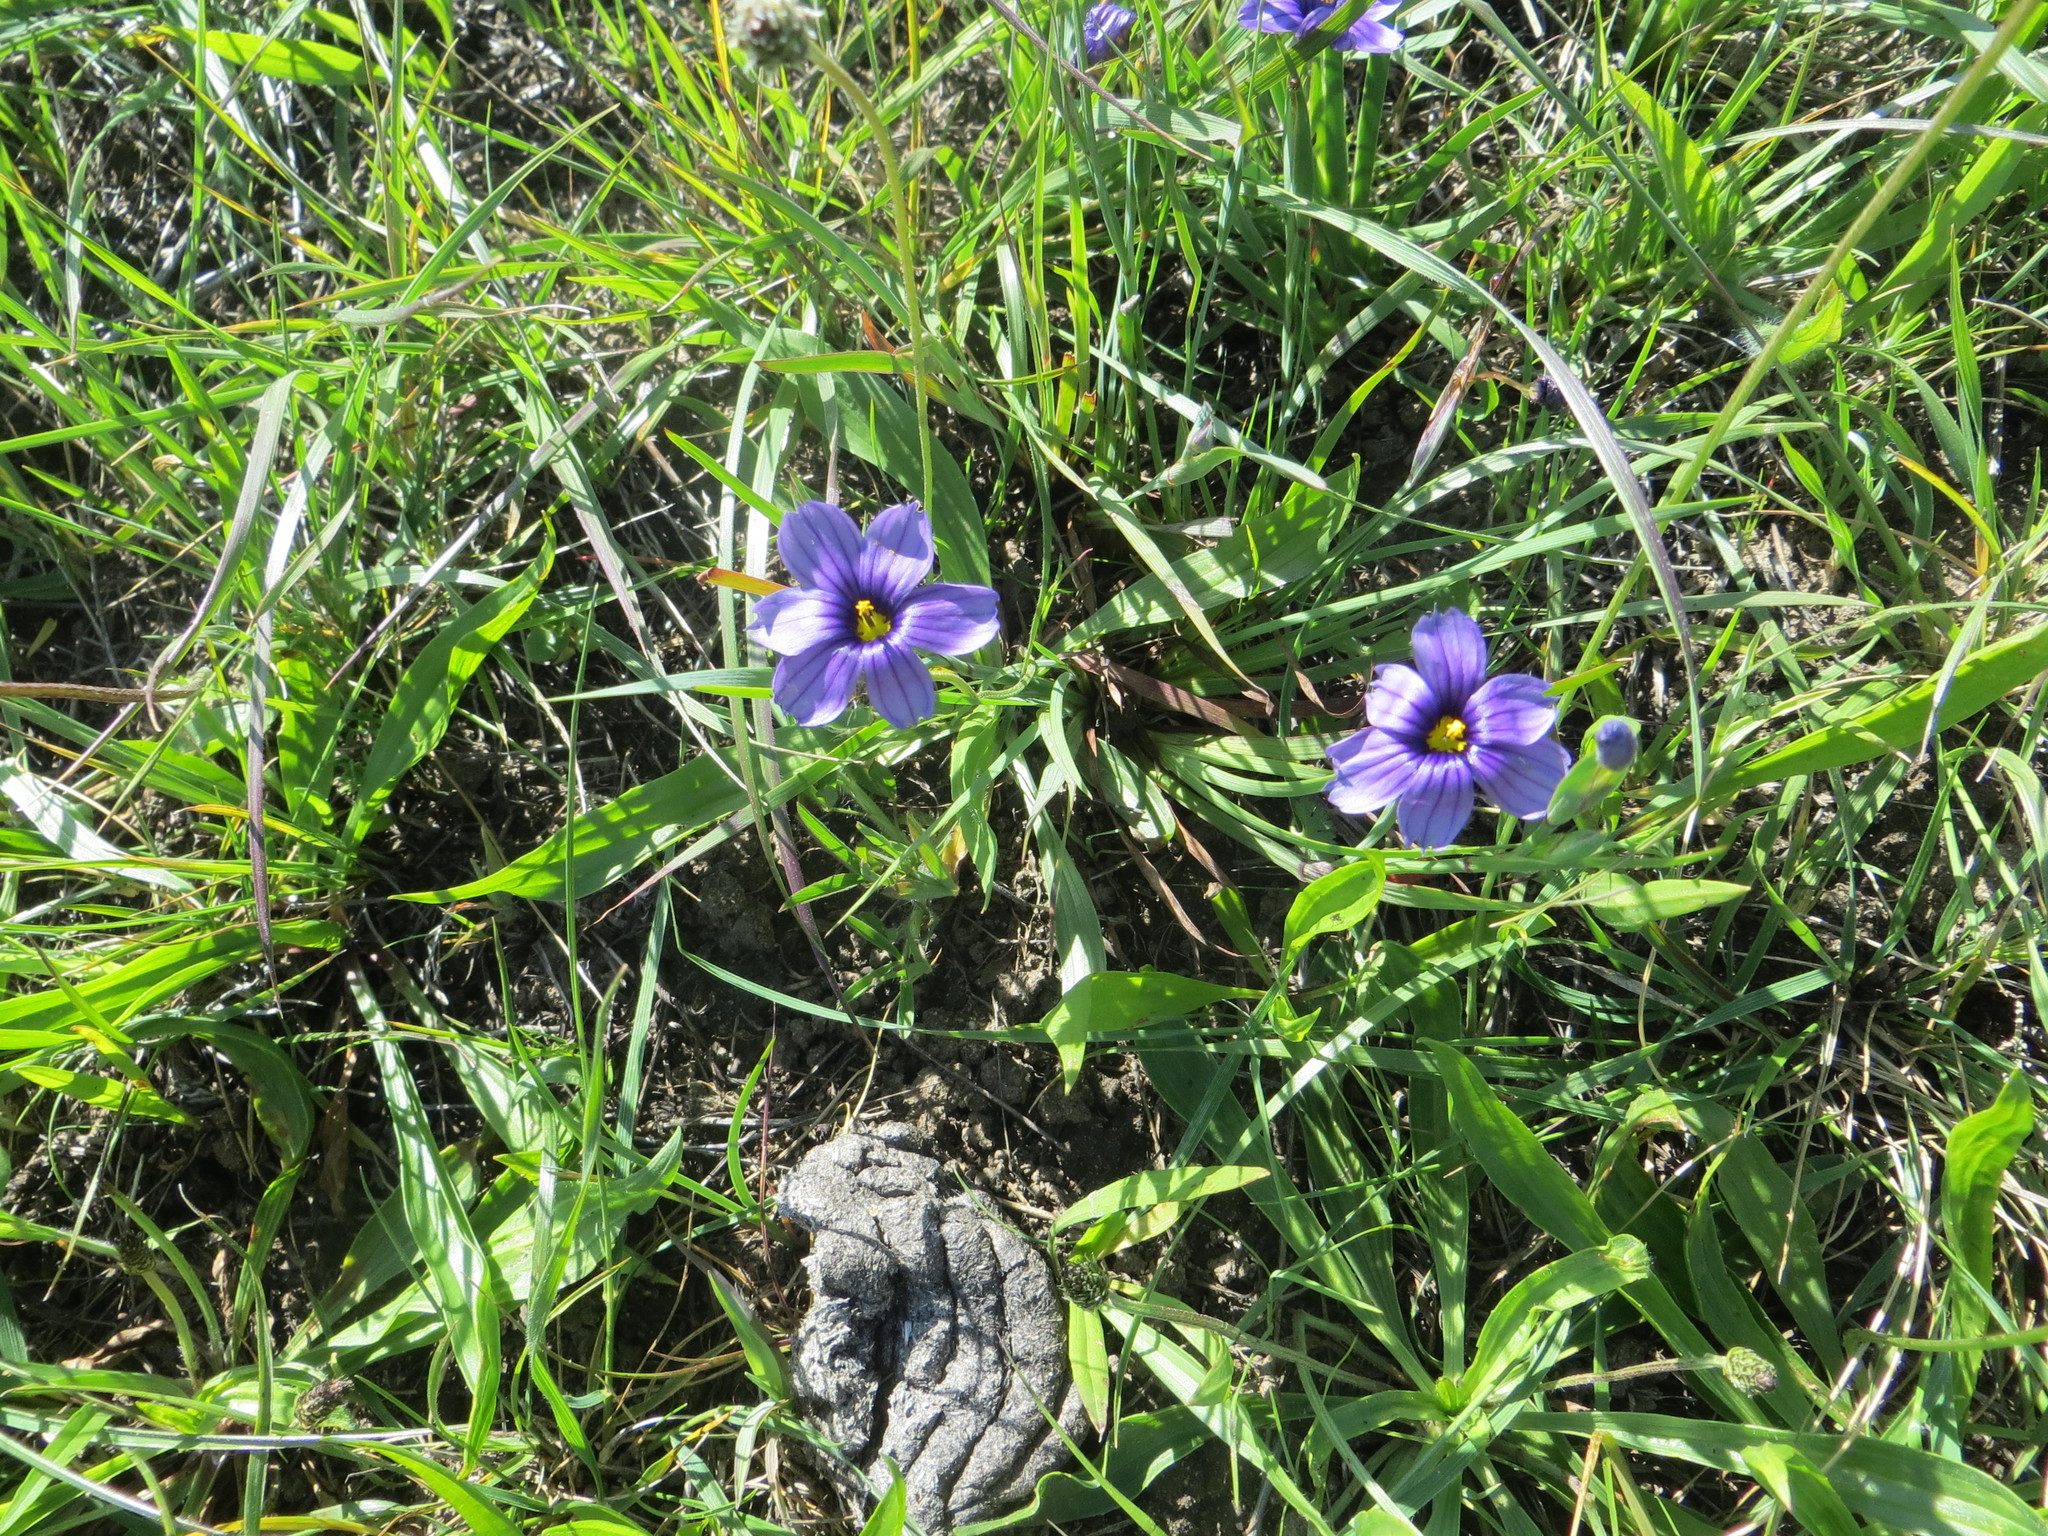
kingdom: Plantae
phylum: Tracheophyta
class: Liliopsida
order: Asparagales
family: Iridaceae
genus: Sisyrinchium
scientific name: Sisyrinchium bellum
